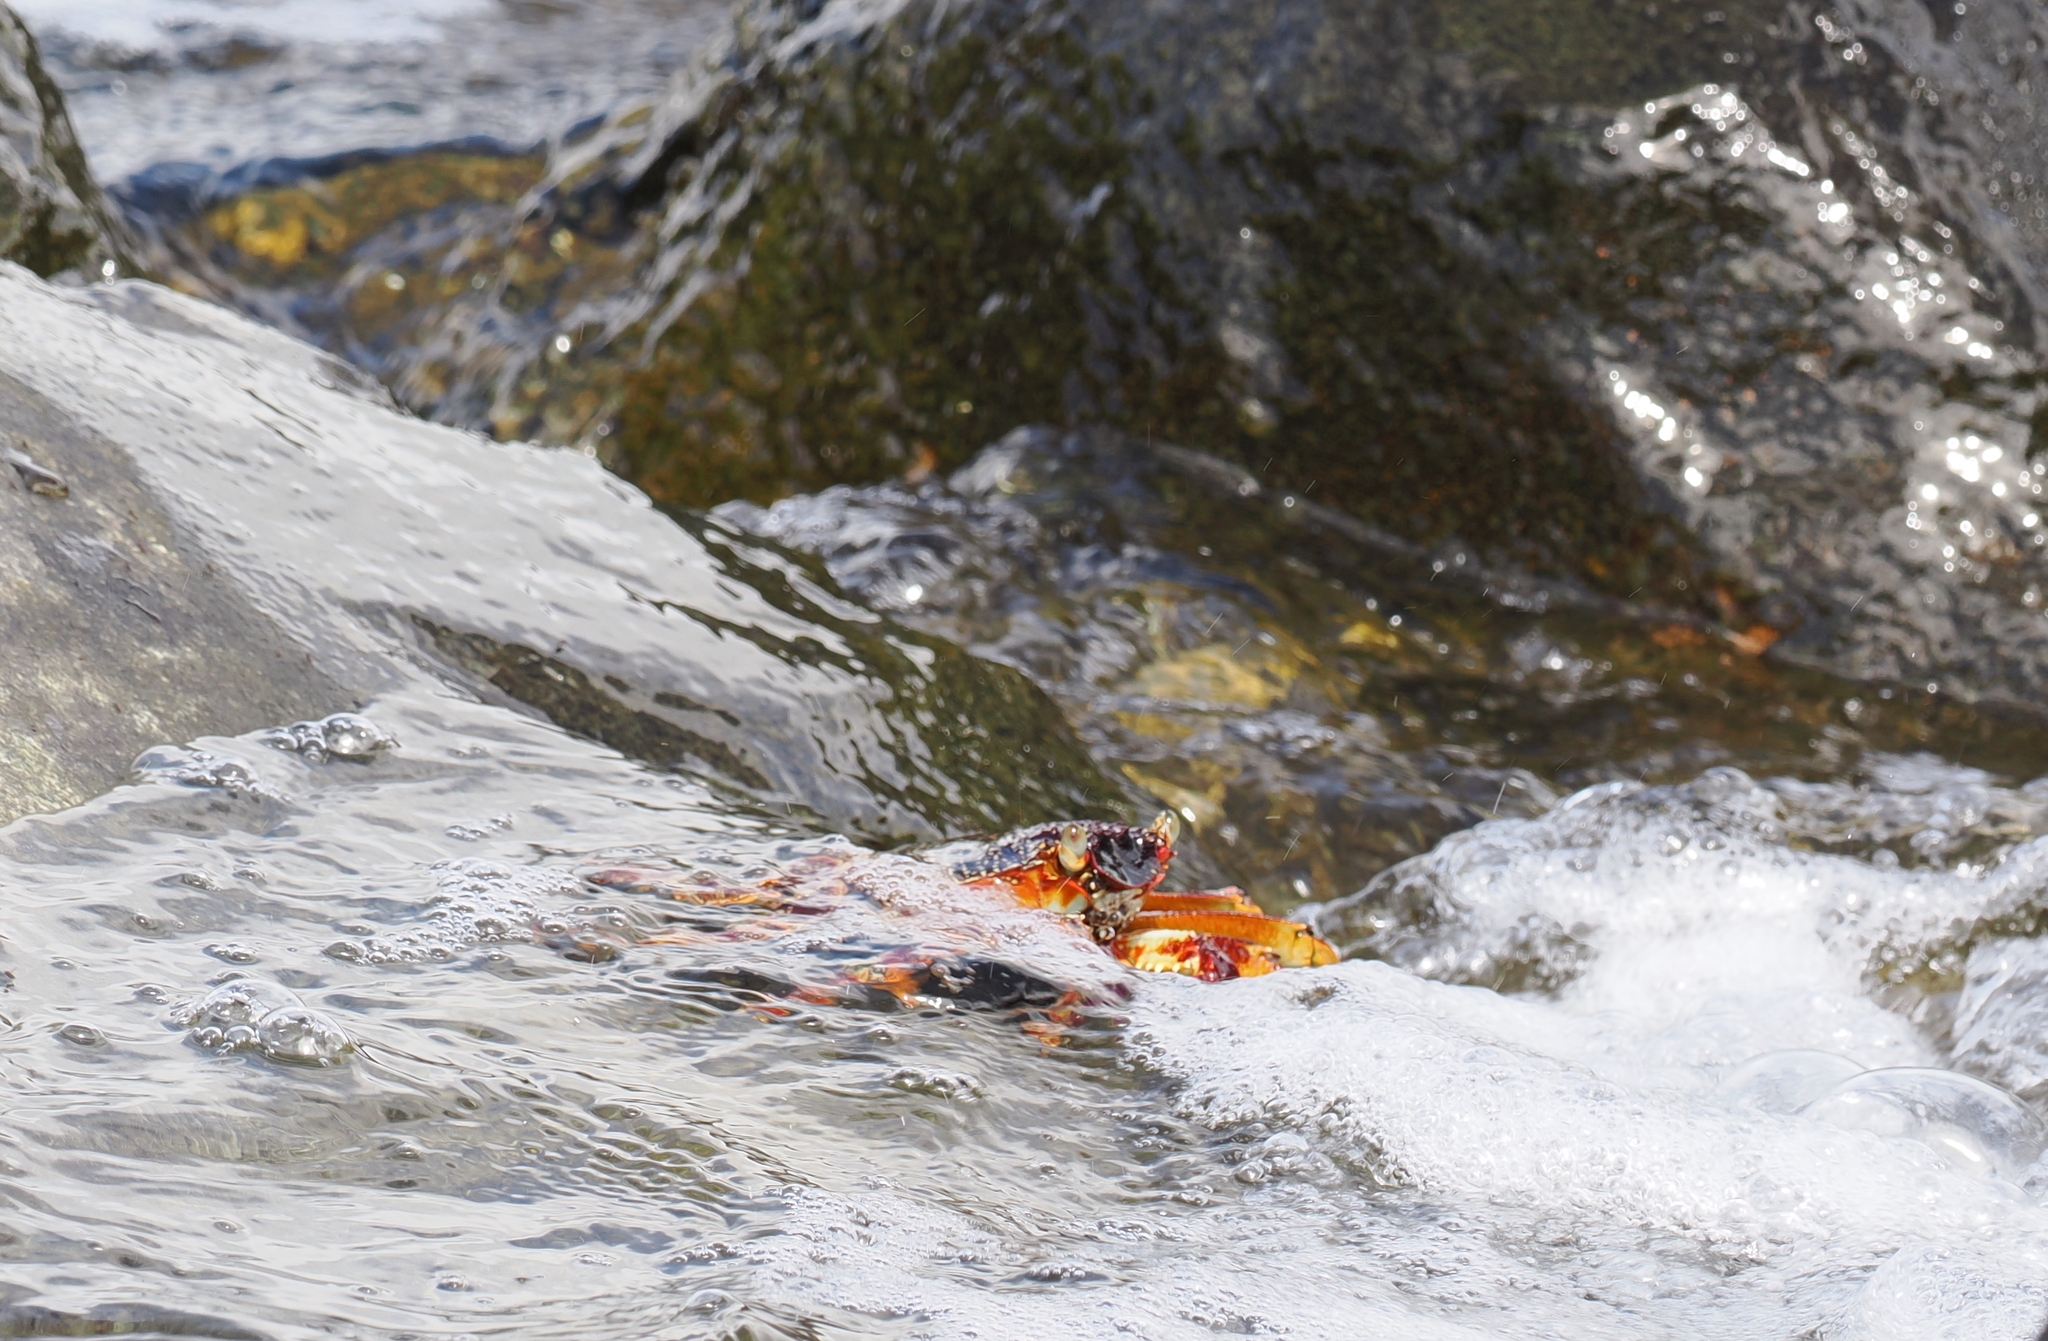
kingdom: Animalia
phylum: Arthropoda
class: Malacostraca
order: Decapoda
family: Grapsidae
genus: Grapsus
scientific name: Grapsus tenuicrustatus
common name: Natal lightfoot crab
